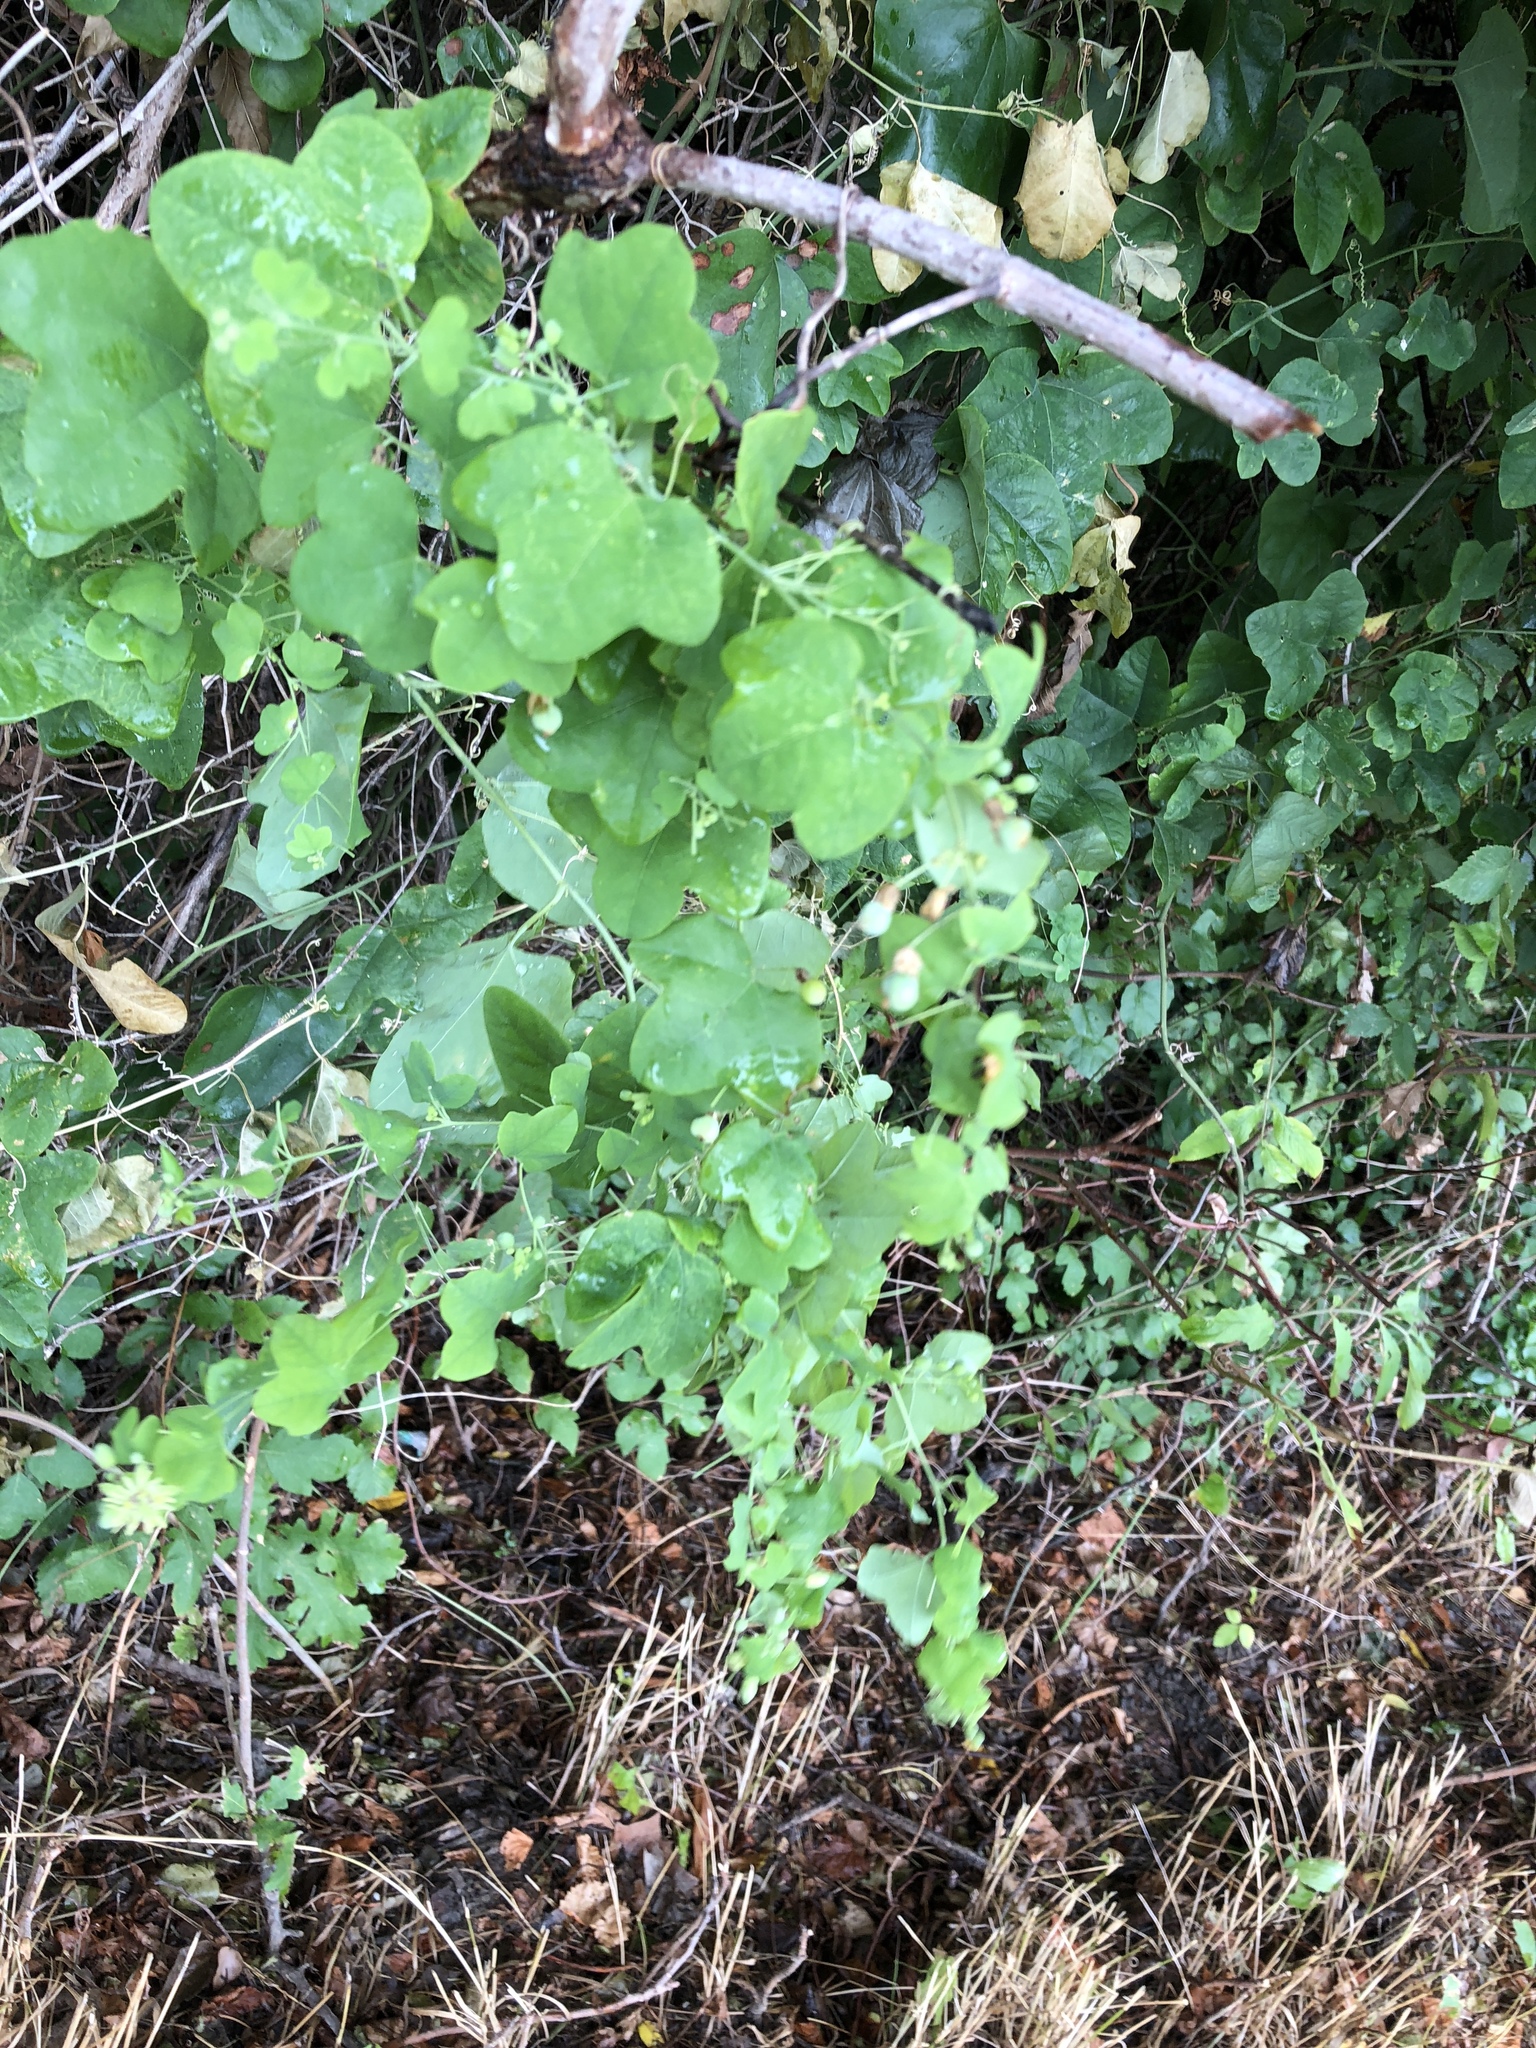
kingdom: Plantae
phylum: Tracheophyta
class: Magnoliopsida
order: Malpighiales
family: Passifloraceae
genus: Passiflora
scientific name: Passiflora lutea
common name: Yellow passionflower
